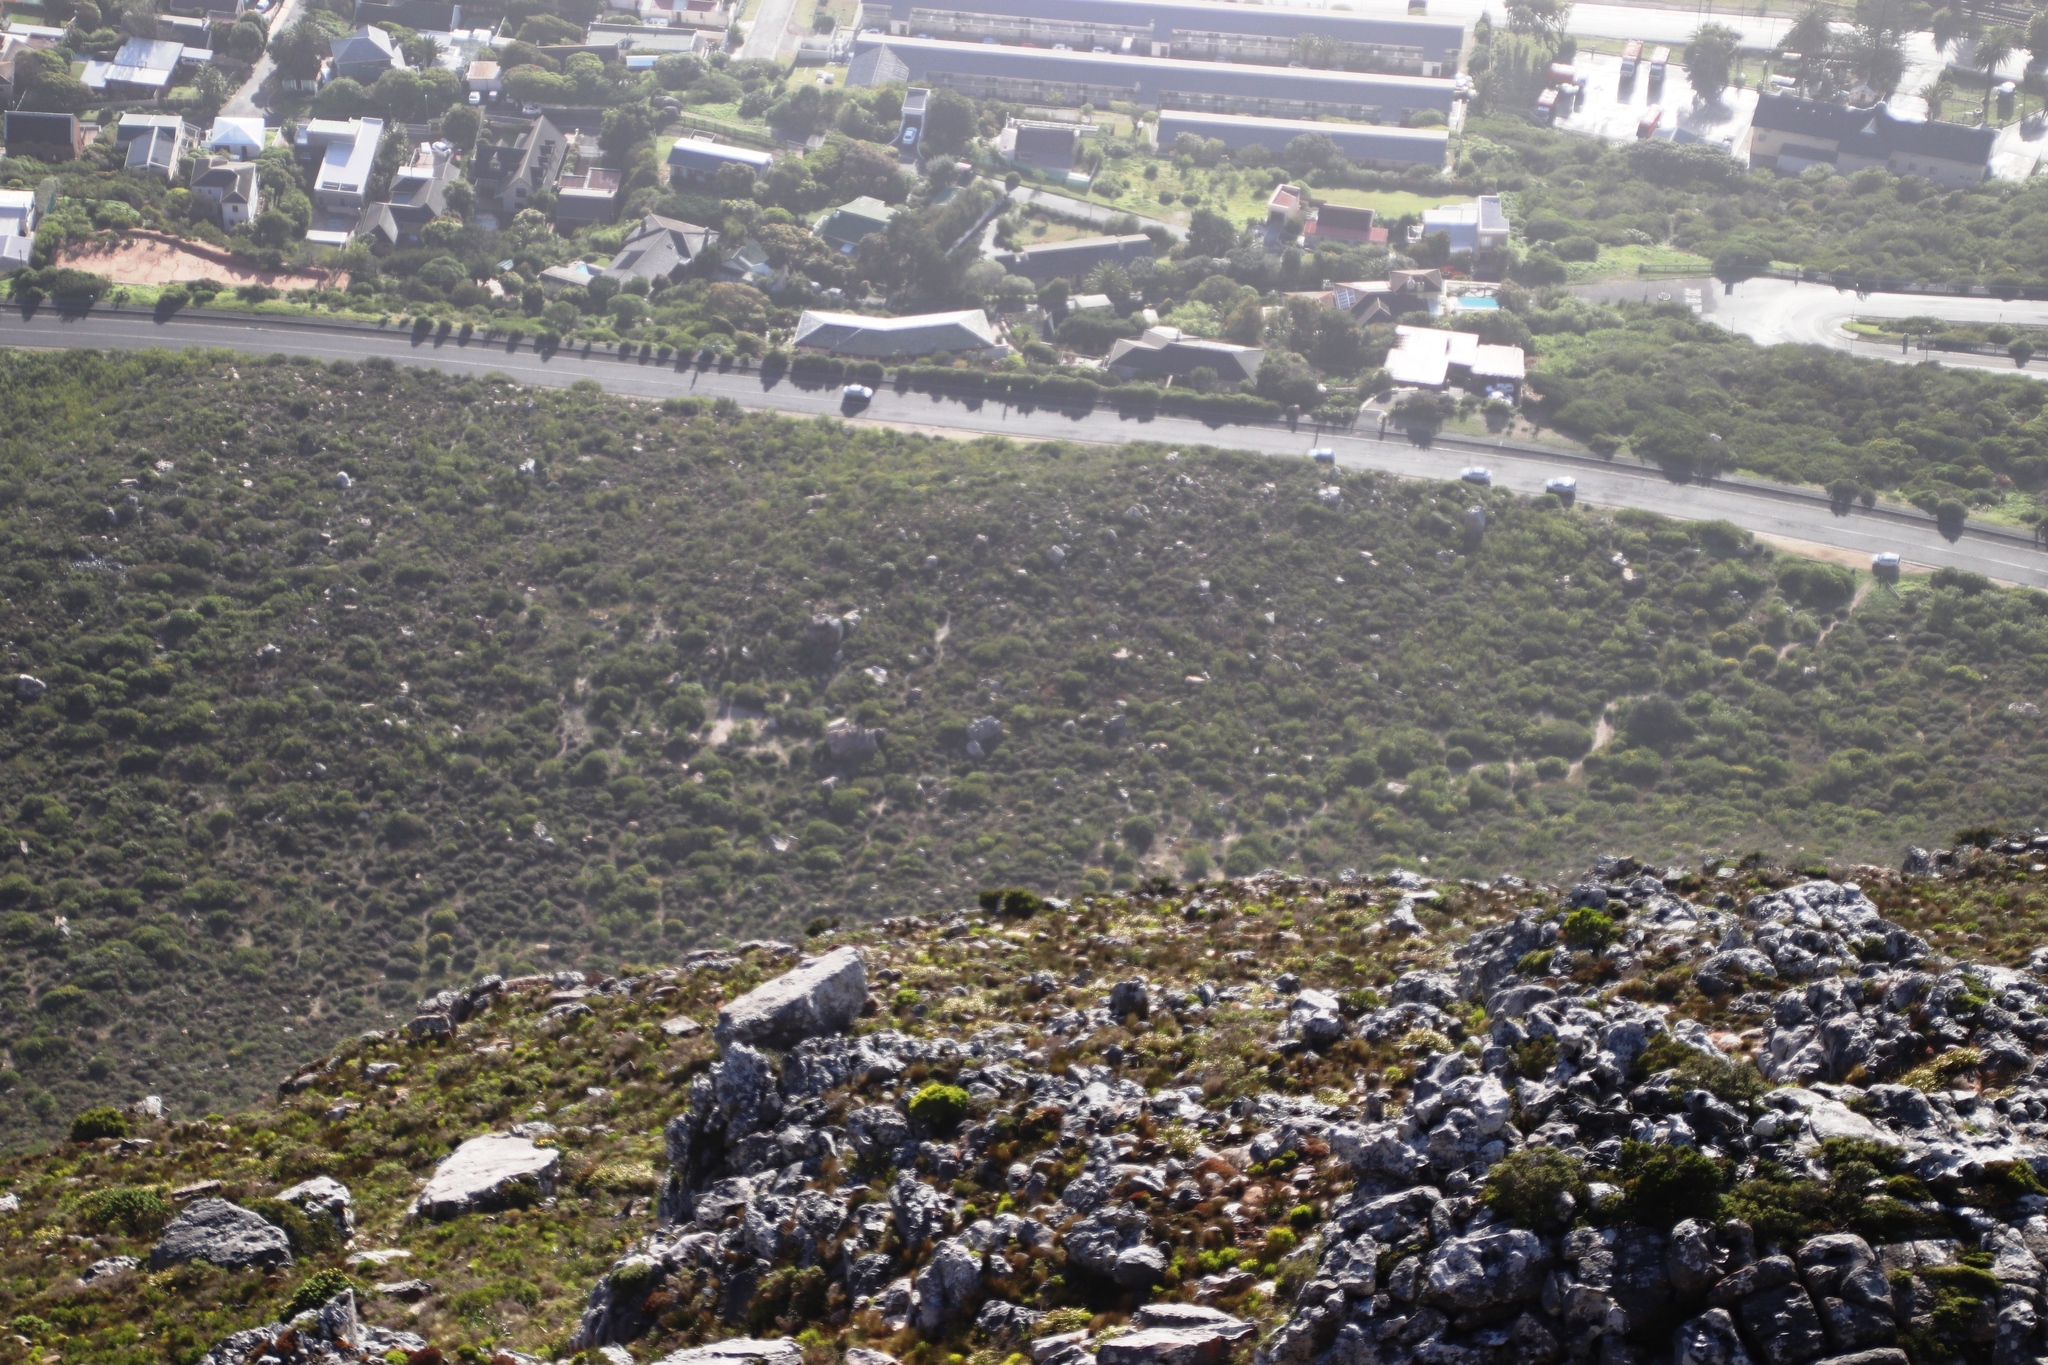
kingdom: Plantae
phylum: Tracheophyta
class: Magnoliopsida
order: Proteales
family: Proteaceae
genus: Leucospermum
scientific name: Leucospermum conocarpodendron
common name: Tree pincushion
